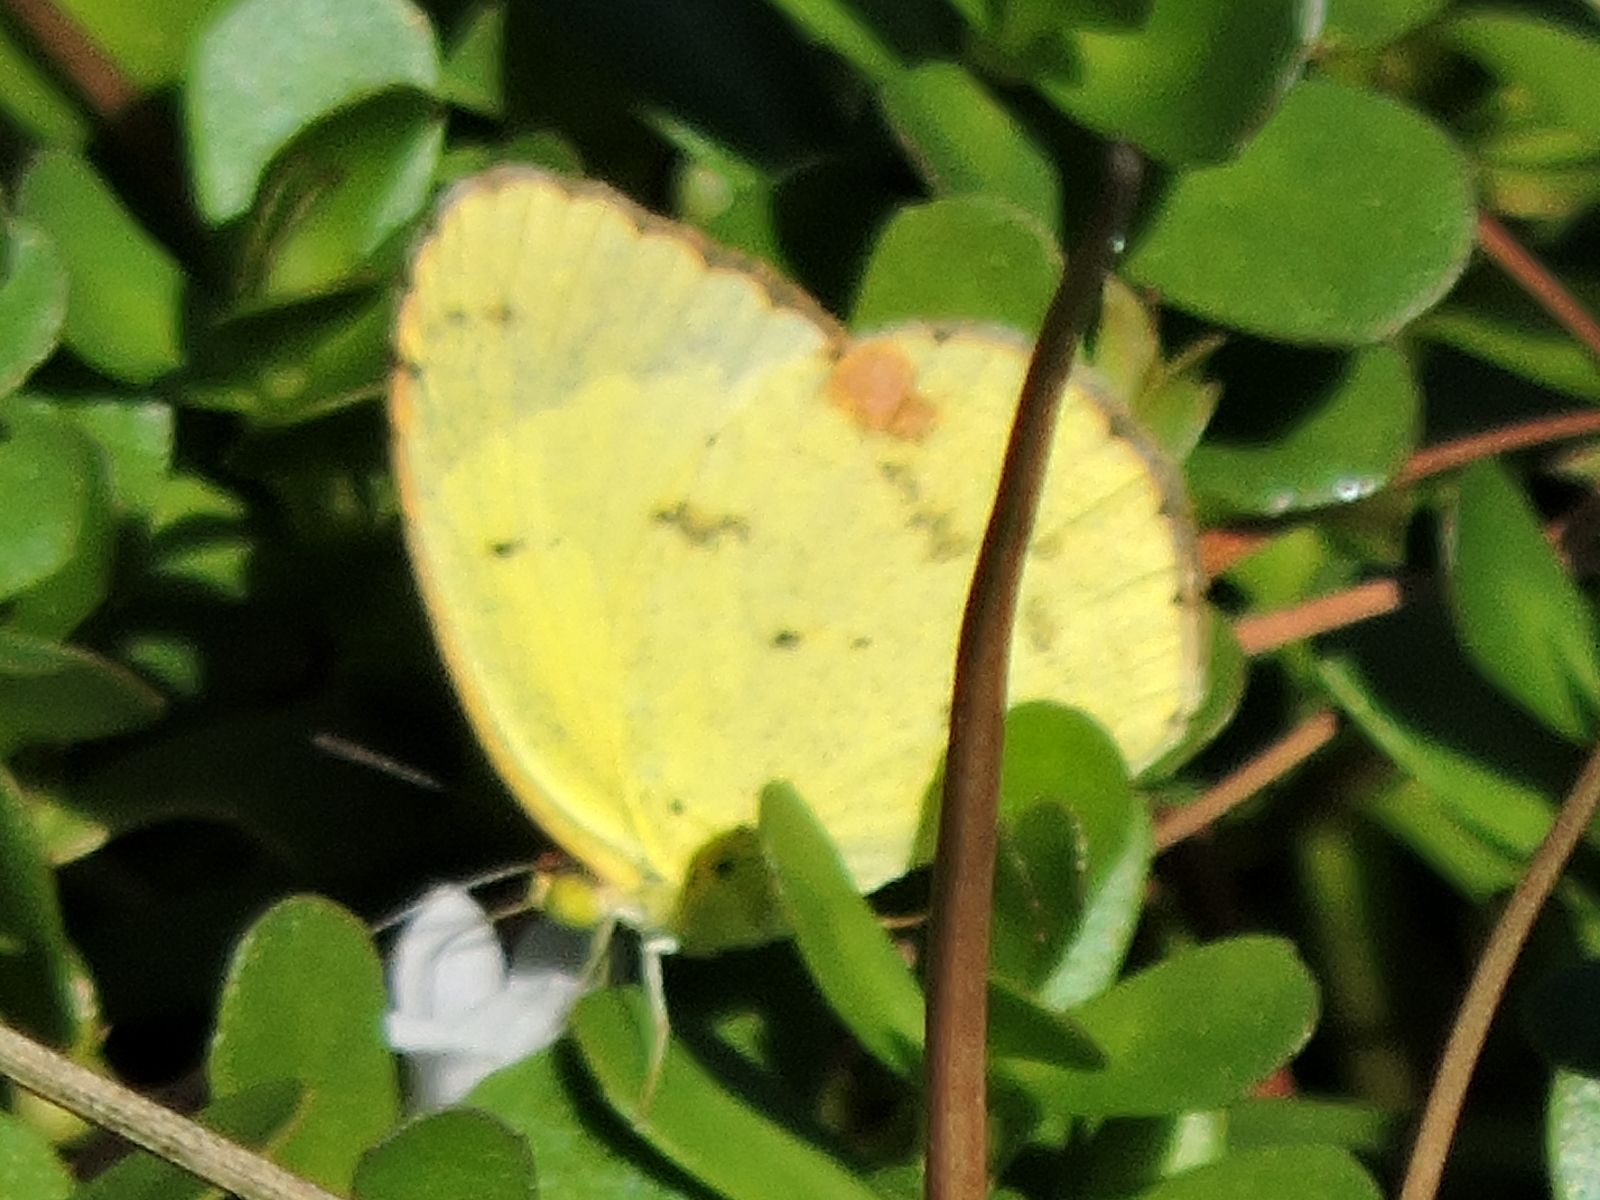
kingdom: Animalia
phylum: Arthropoda
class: Insecta
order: Lepidoptera
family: Pieridae
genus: Pyrisitia
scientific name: Pyrisitia lisa
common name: Little yellow
